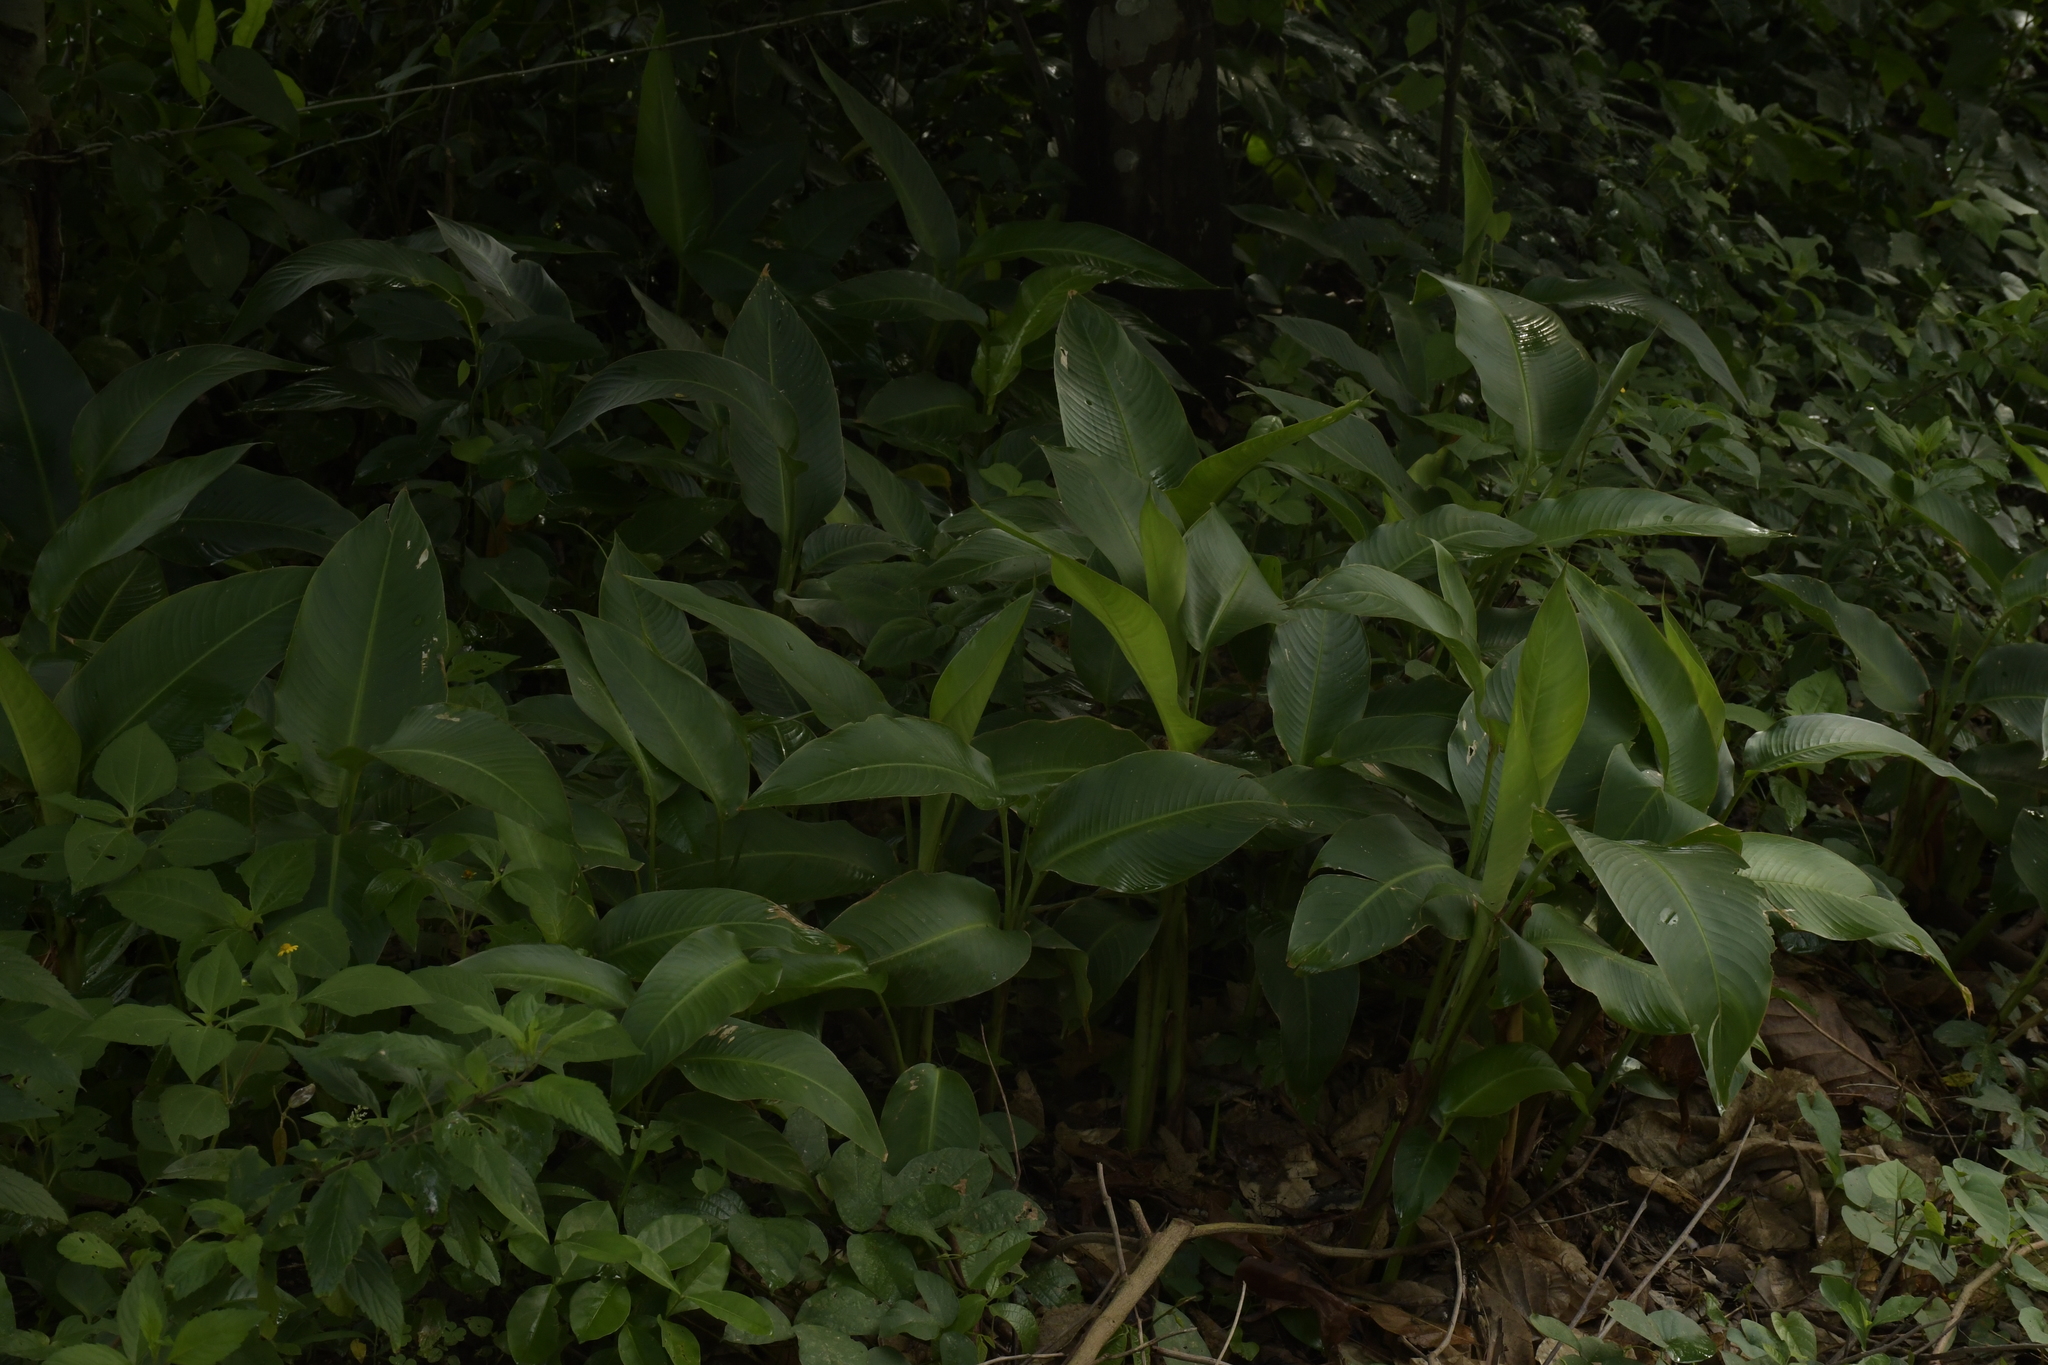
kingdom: Plantae
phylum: Tracheophyta
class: Liliopsida
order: Zingiberales
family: Cannaceae
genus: Canna
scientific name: Canna indica
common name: Indian shot
